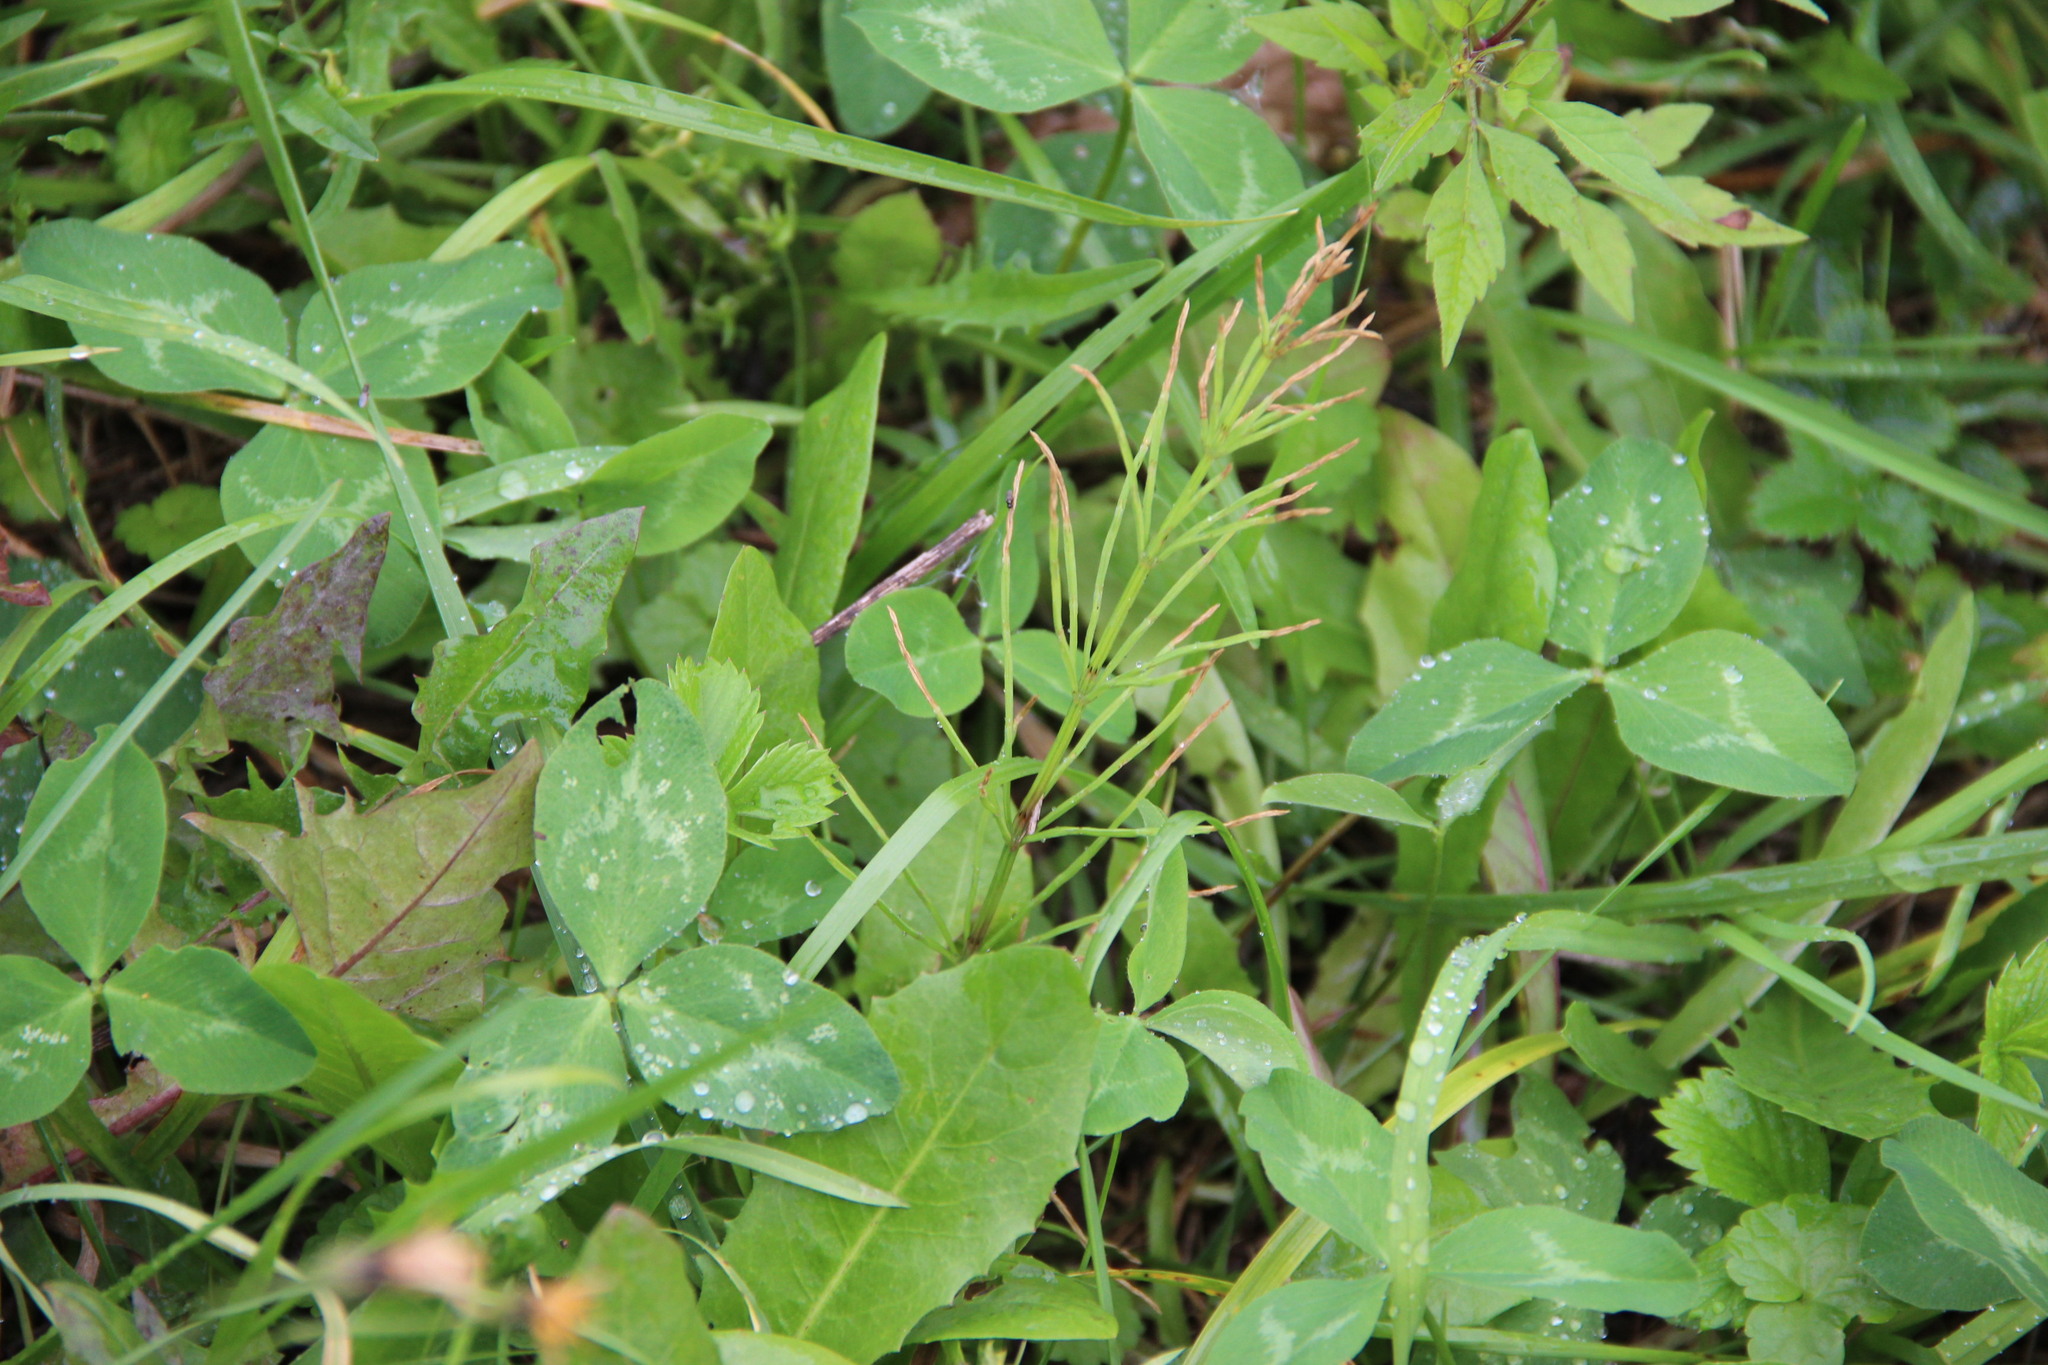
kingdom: Plantae
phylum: Tracheophyta
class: Polypodiopsida
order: Equisetales
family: Equisetaceae
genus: Equisetum
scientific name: Equisetum arvense
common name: Field horsetail
